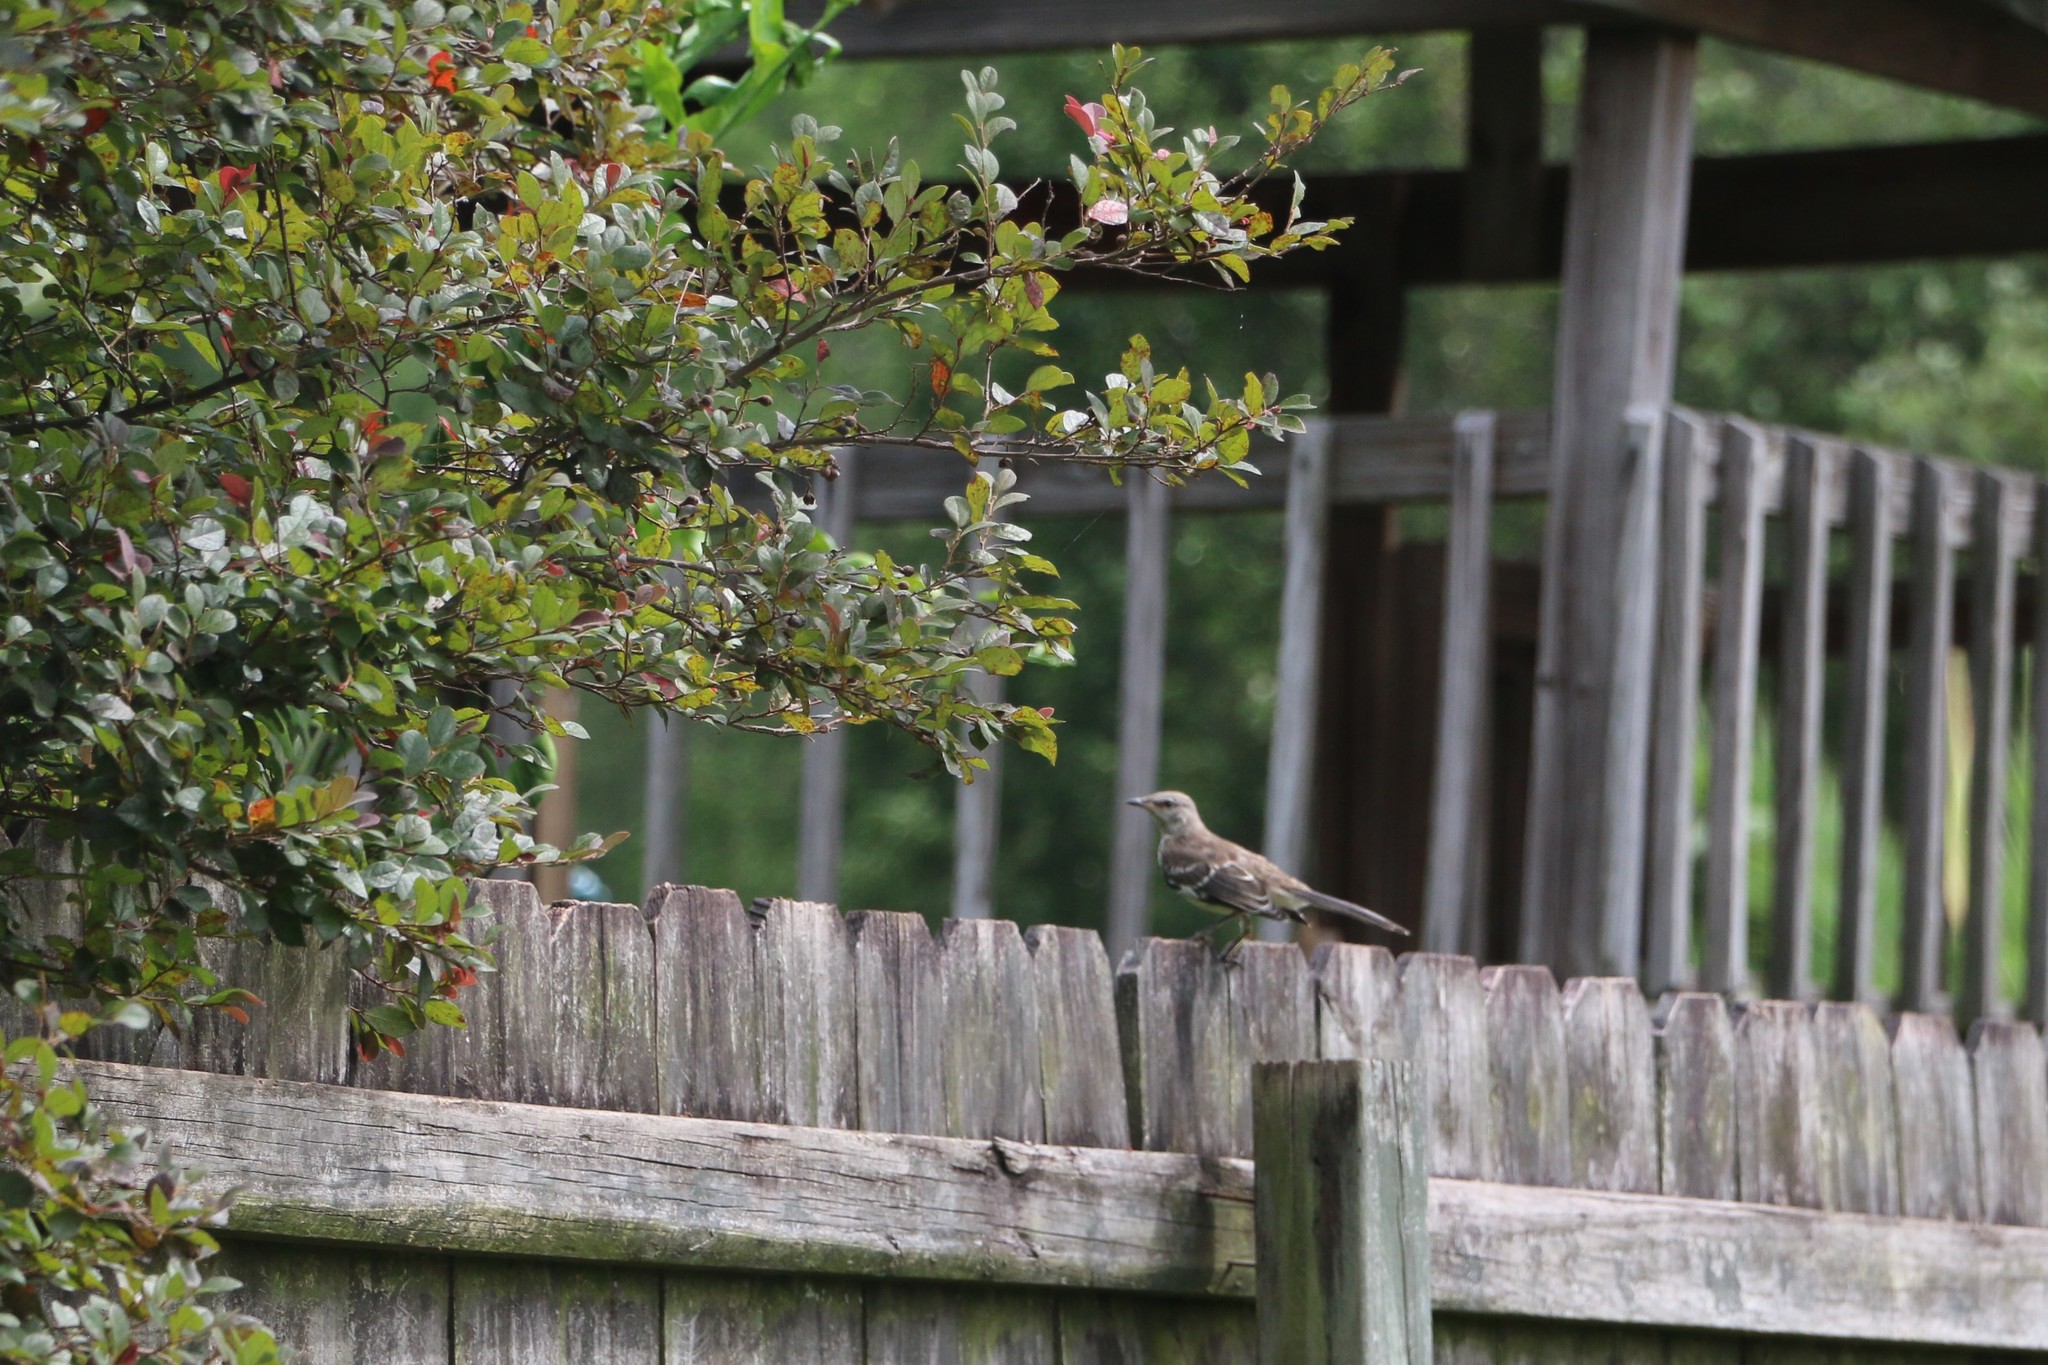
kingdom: Animalia
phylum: Chordata
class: Aves
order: Passeriformes
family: Mimidae
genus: Mimus
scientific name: Mimus polyglottos
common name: Northern mockingbird
